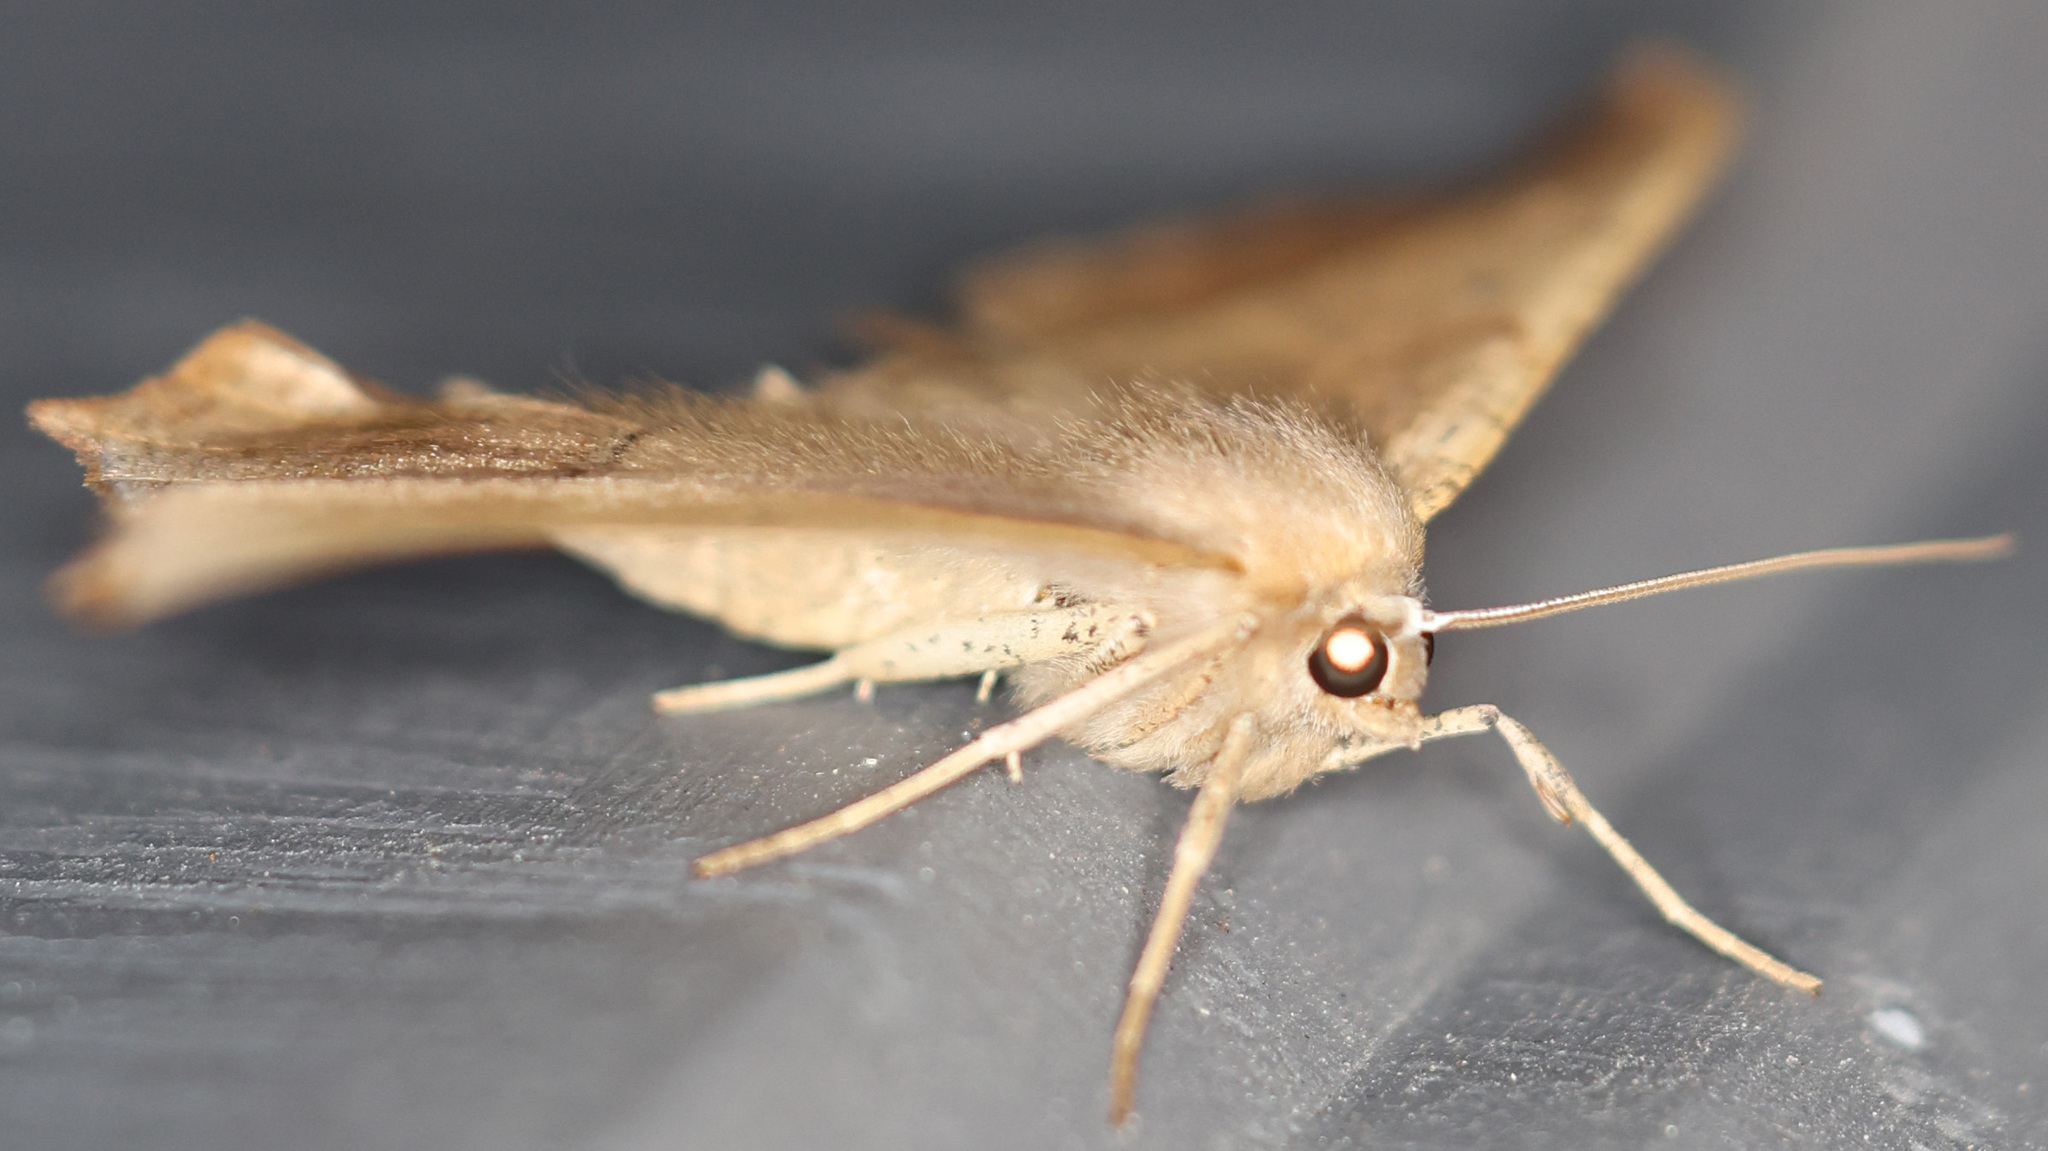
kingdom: Animalia
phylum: Arthropoda
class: Insecta
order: Lepidoptera
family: Geometridae
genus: Prochoerodes
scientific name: Prochoerodes lineola
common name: Large maple spanworm
